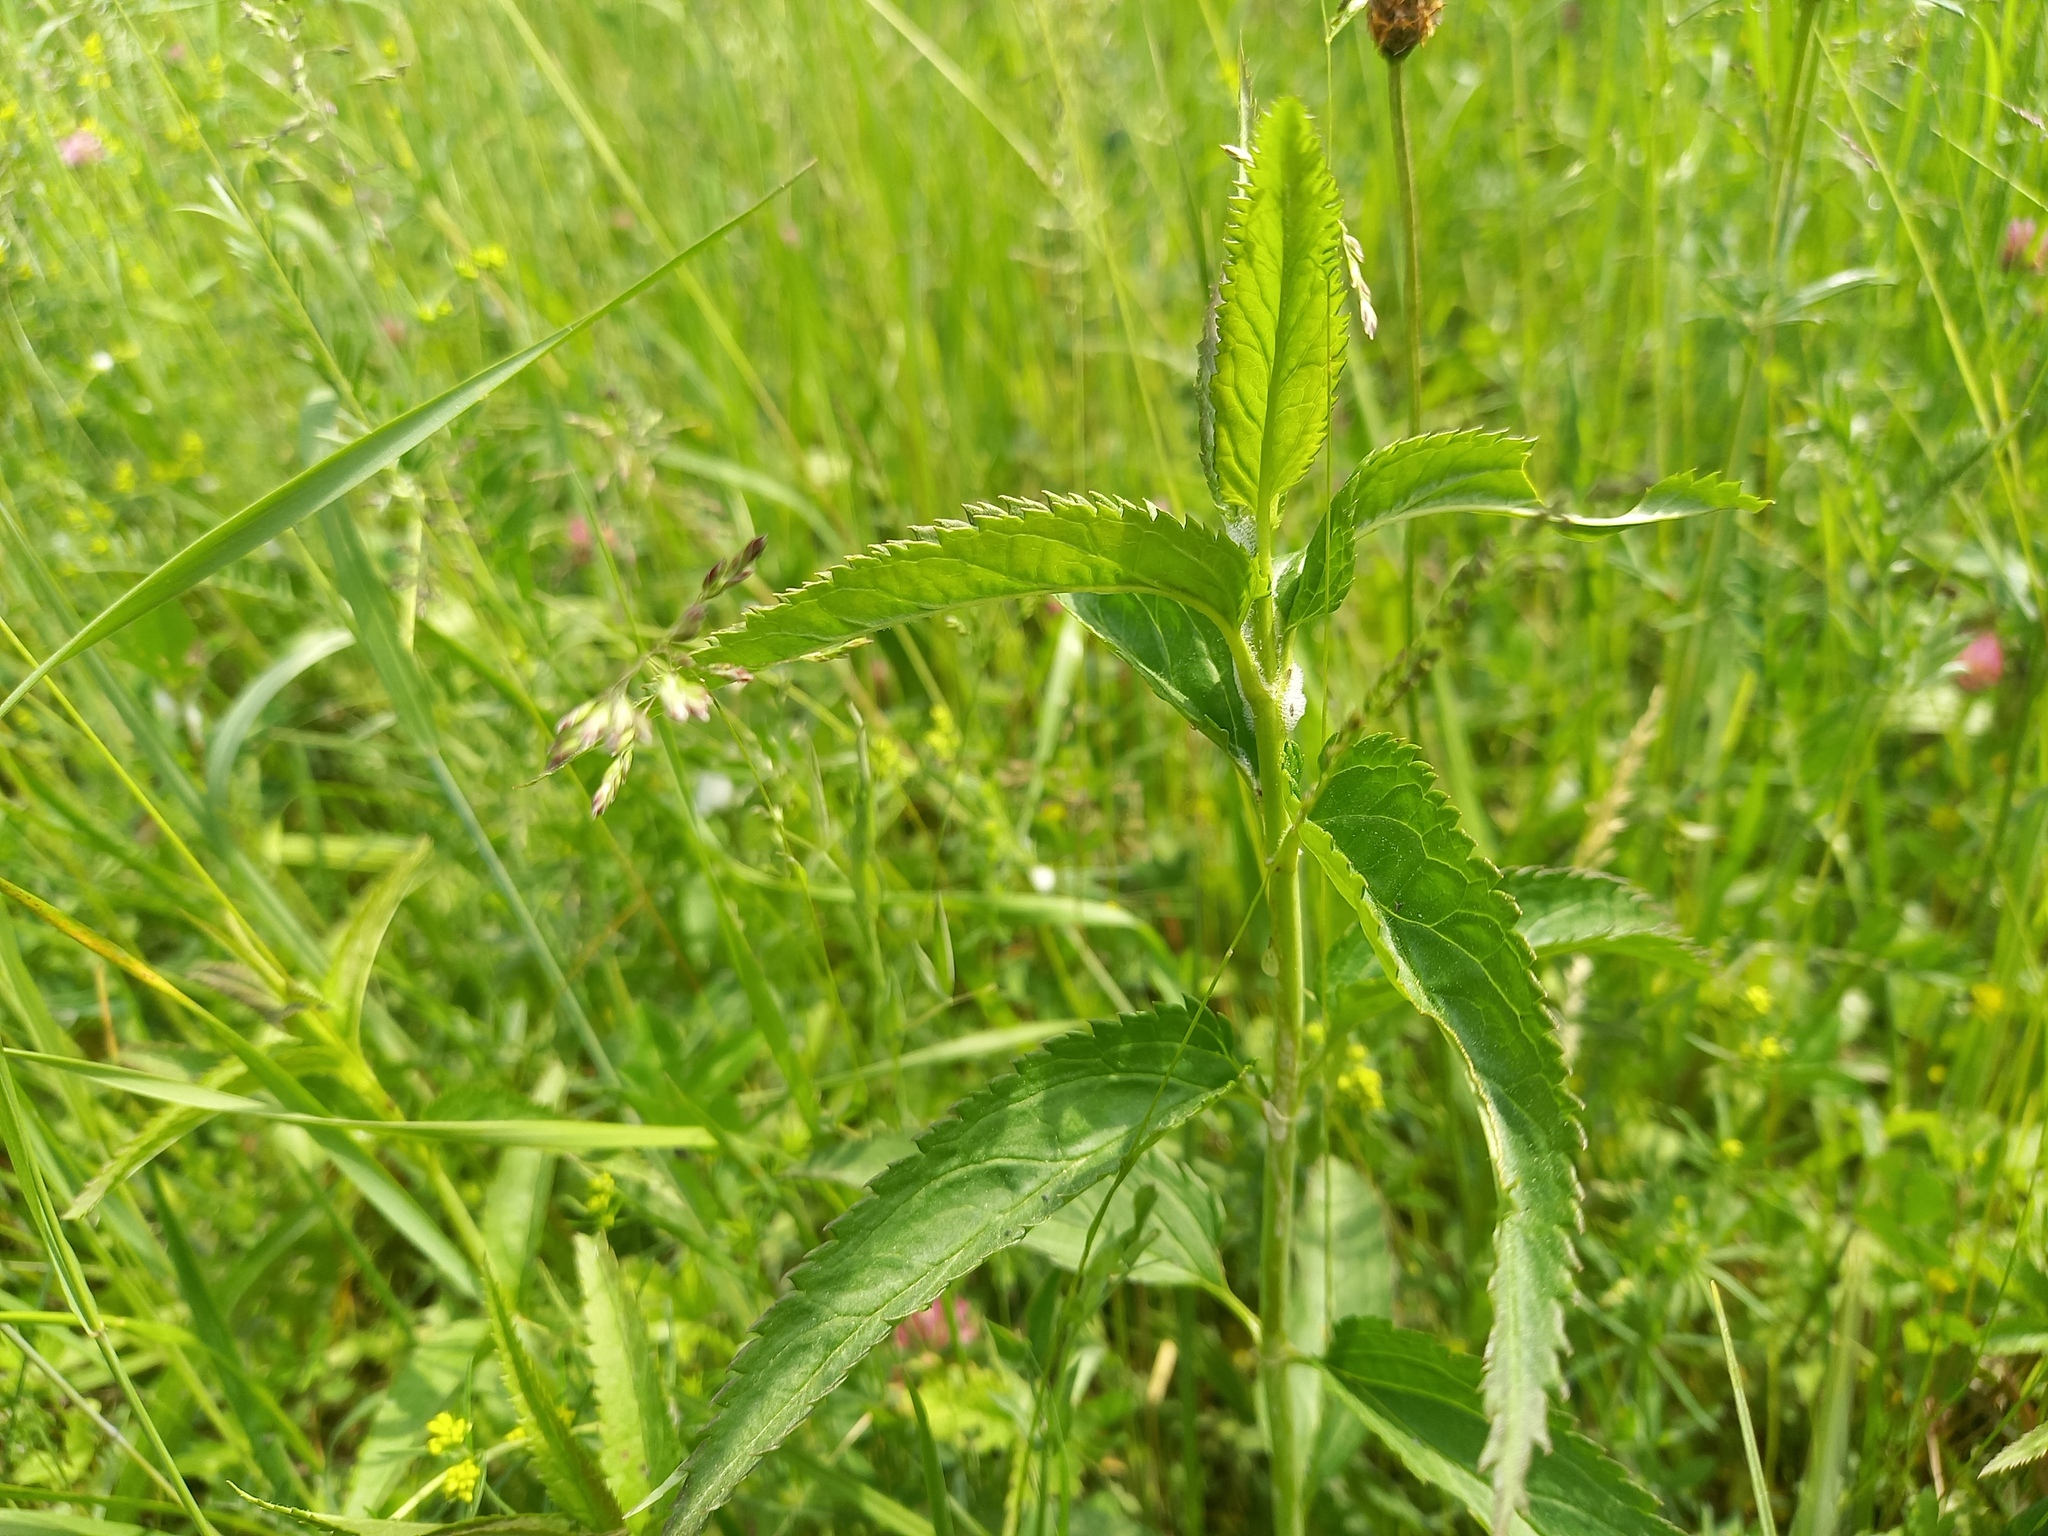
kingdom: Plantae
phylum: Tracheophyta
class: Magnoliopsida
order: Lamiales
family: Plantaginaceae
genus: Veronica
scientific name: Veronica longifolia
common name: Garden speedwell
